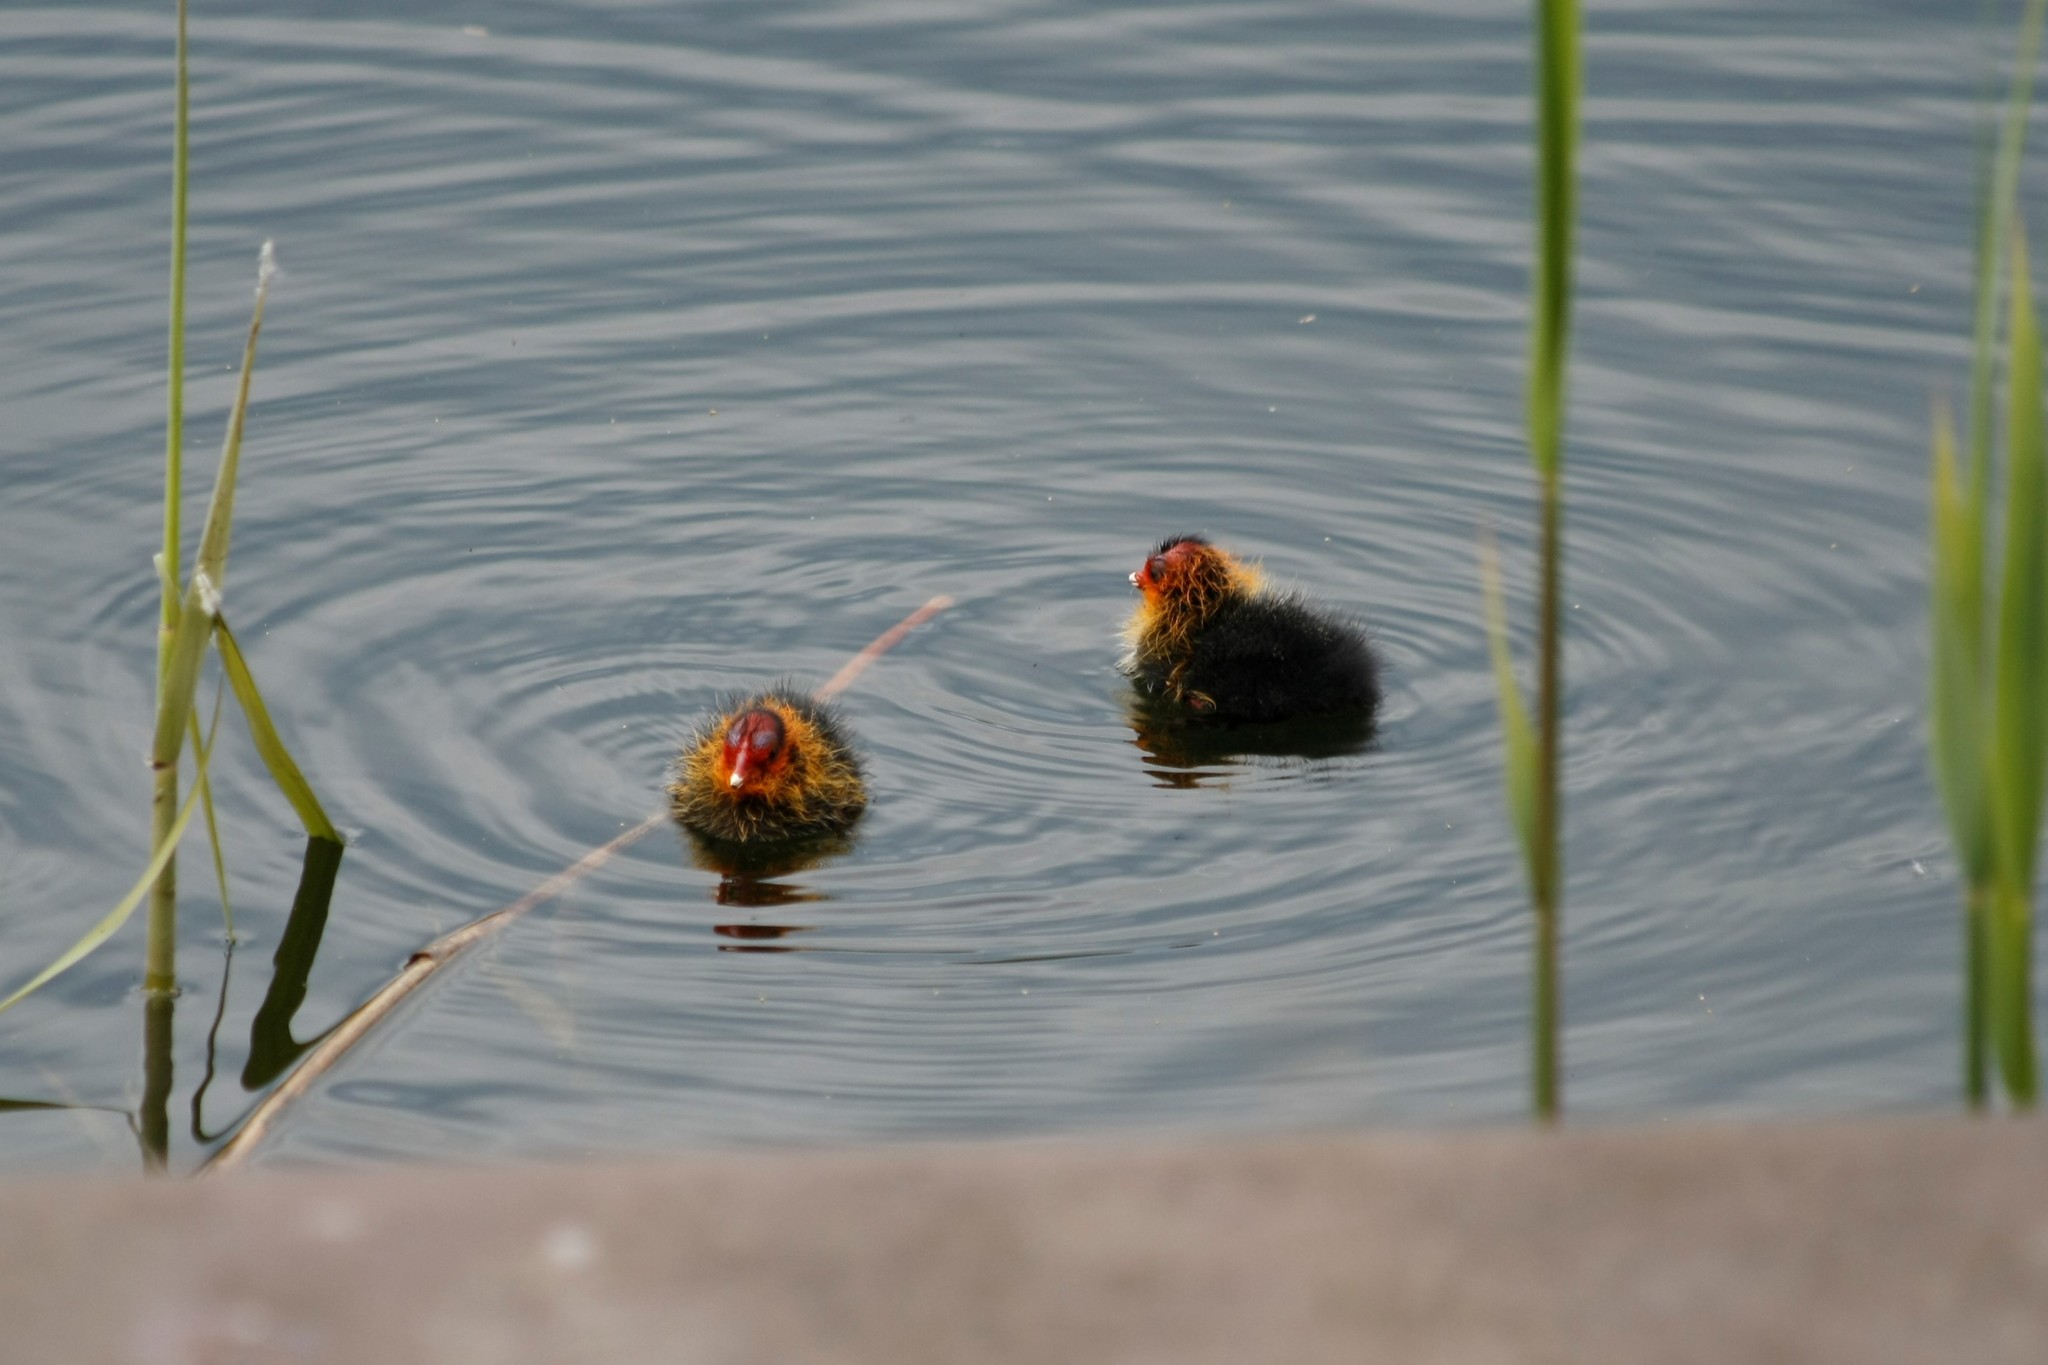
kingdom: Animalia
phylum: Chordata
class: Aves
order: Gruiformes
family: Rallidae
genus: Fulica
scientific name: Fulica atra
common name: Eurasian coot
